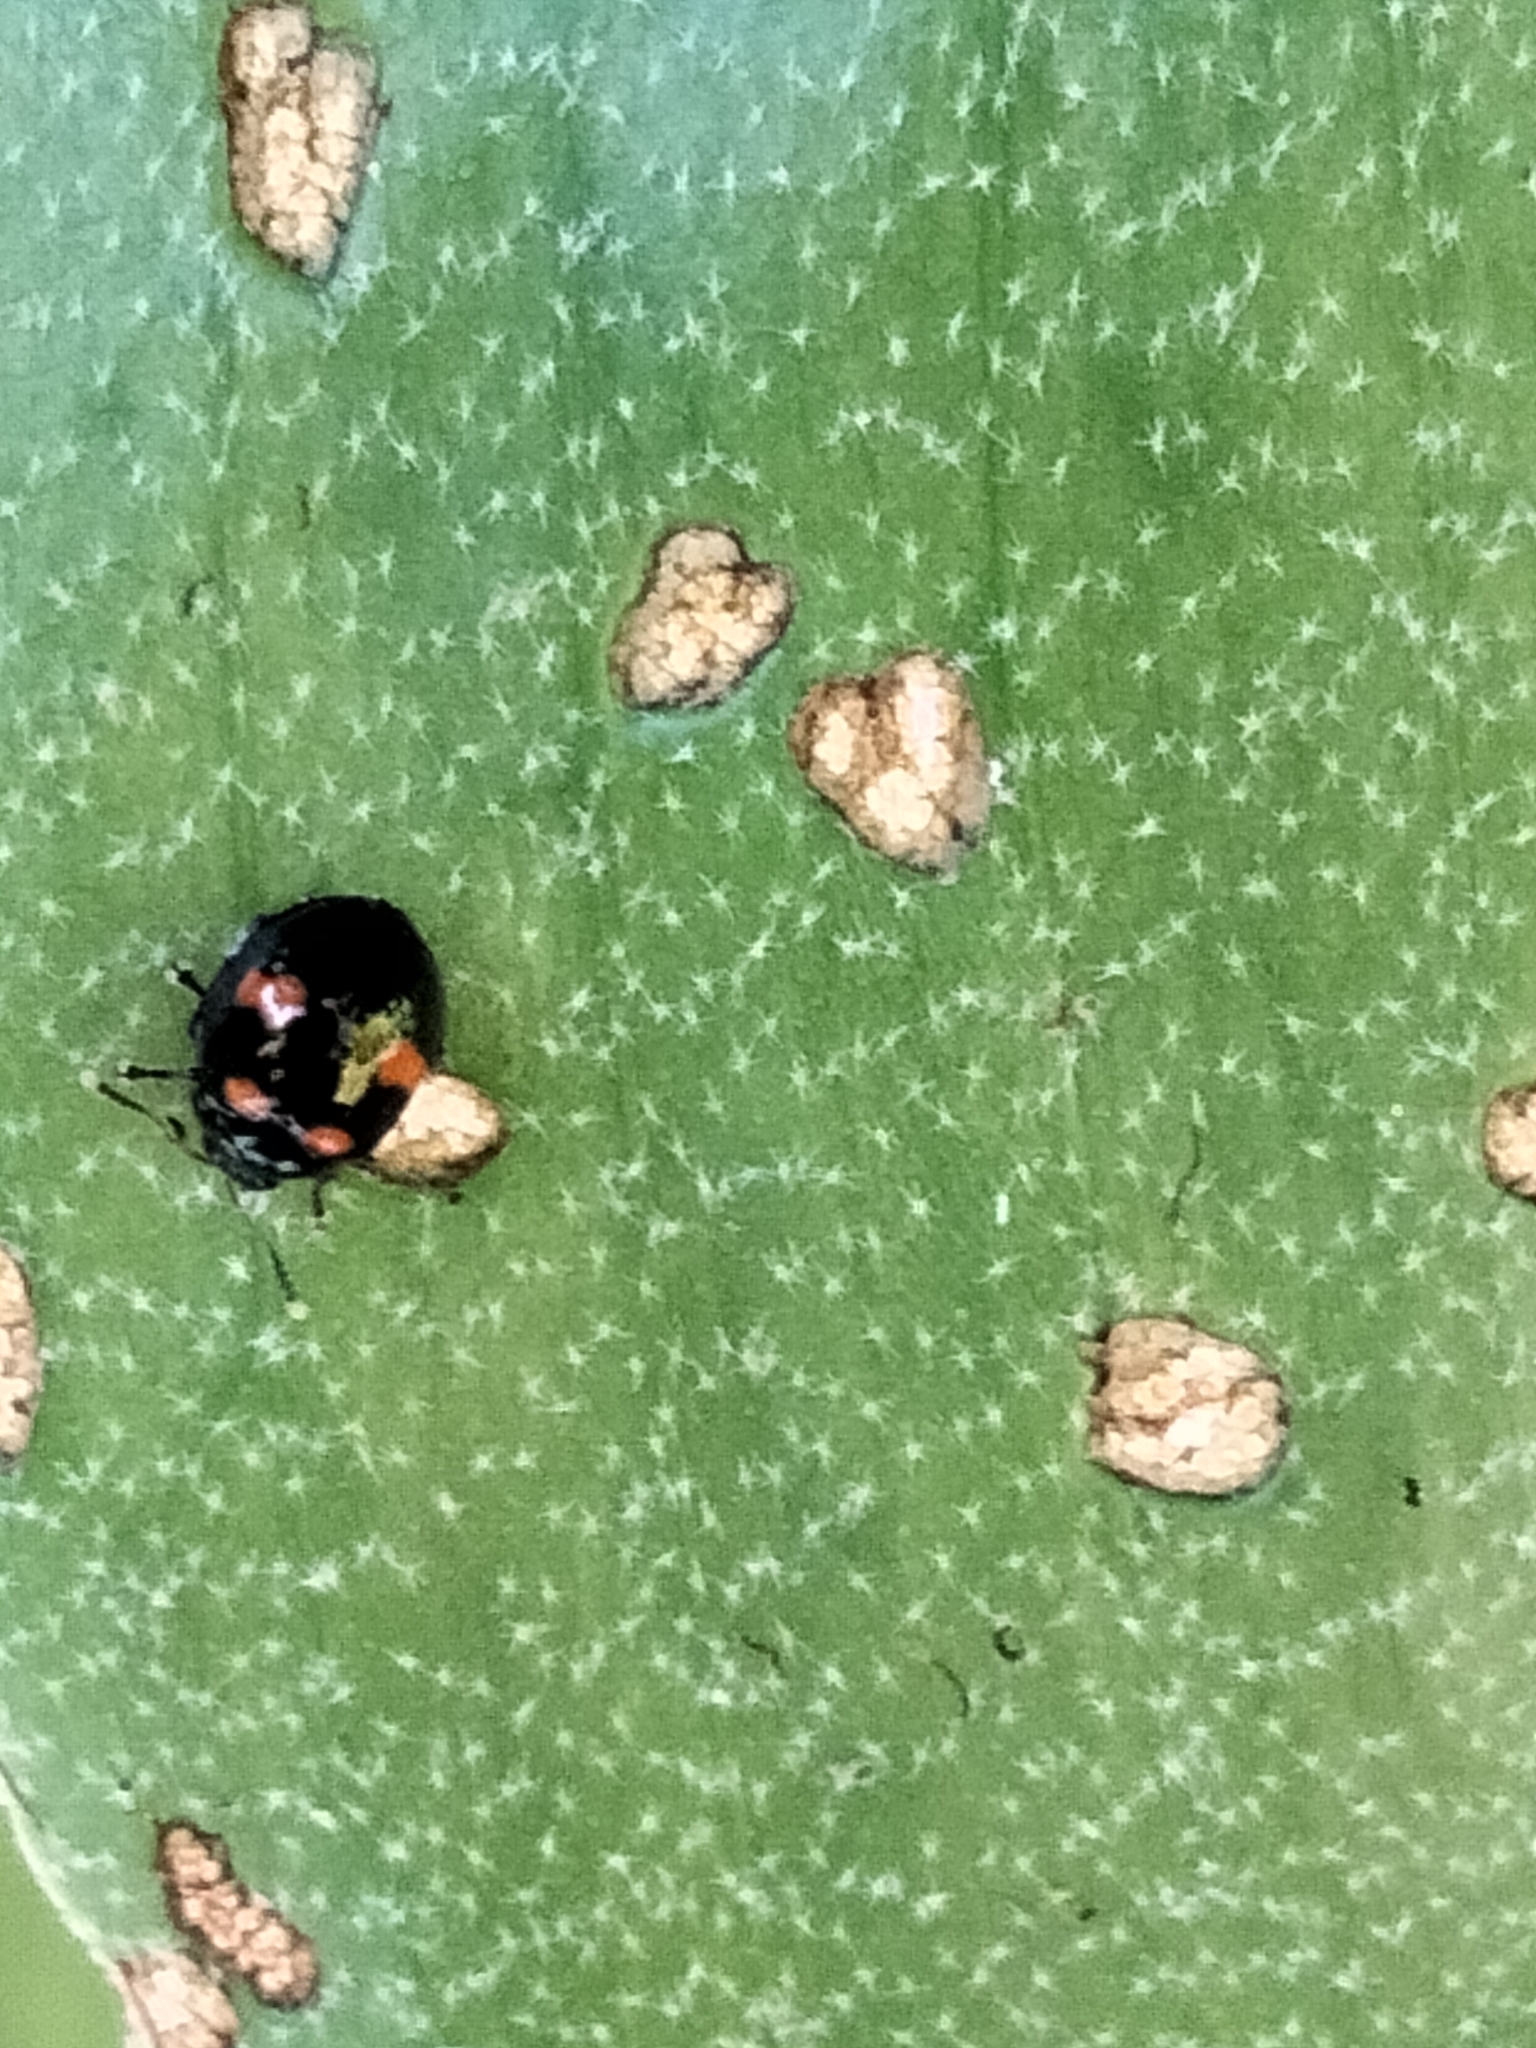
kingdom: Animalia
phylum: Arthropoda
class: Insecta
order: Coleoptera
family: Chrysomelidae
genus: Halticorcus
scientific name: Halticorcus
